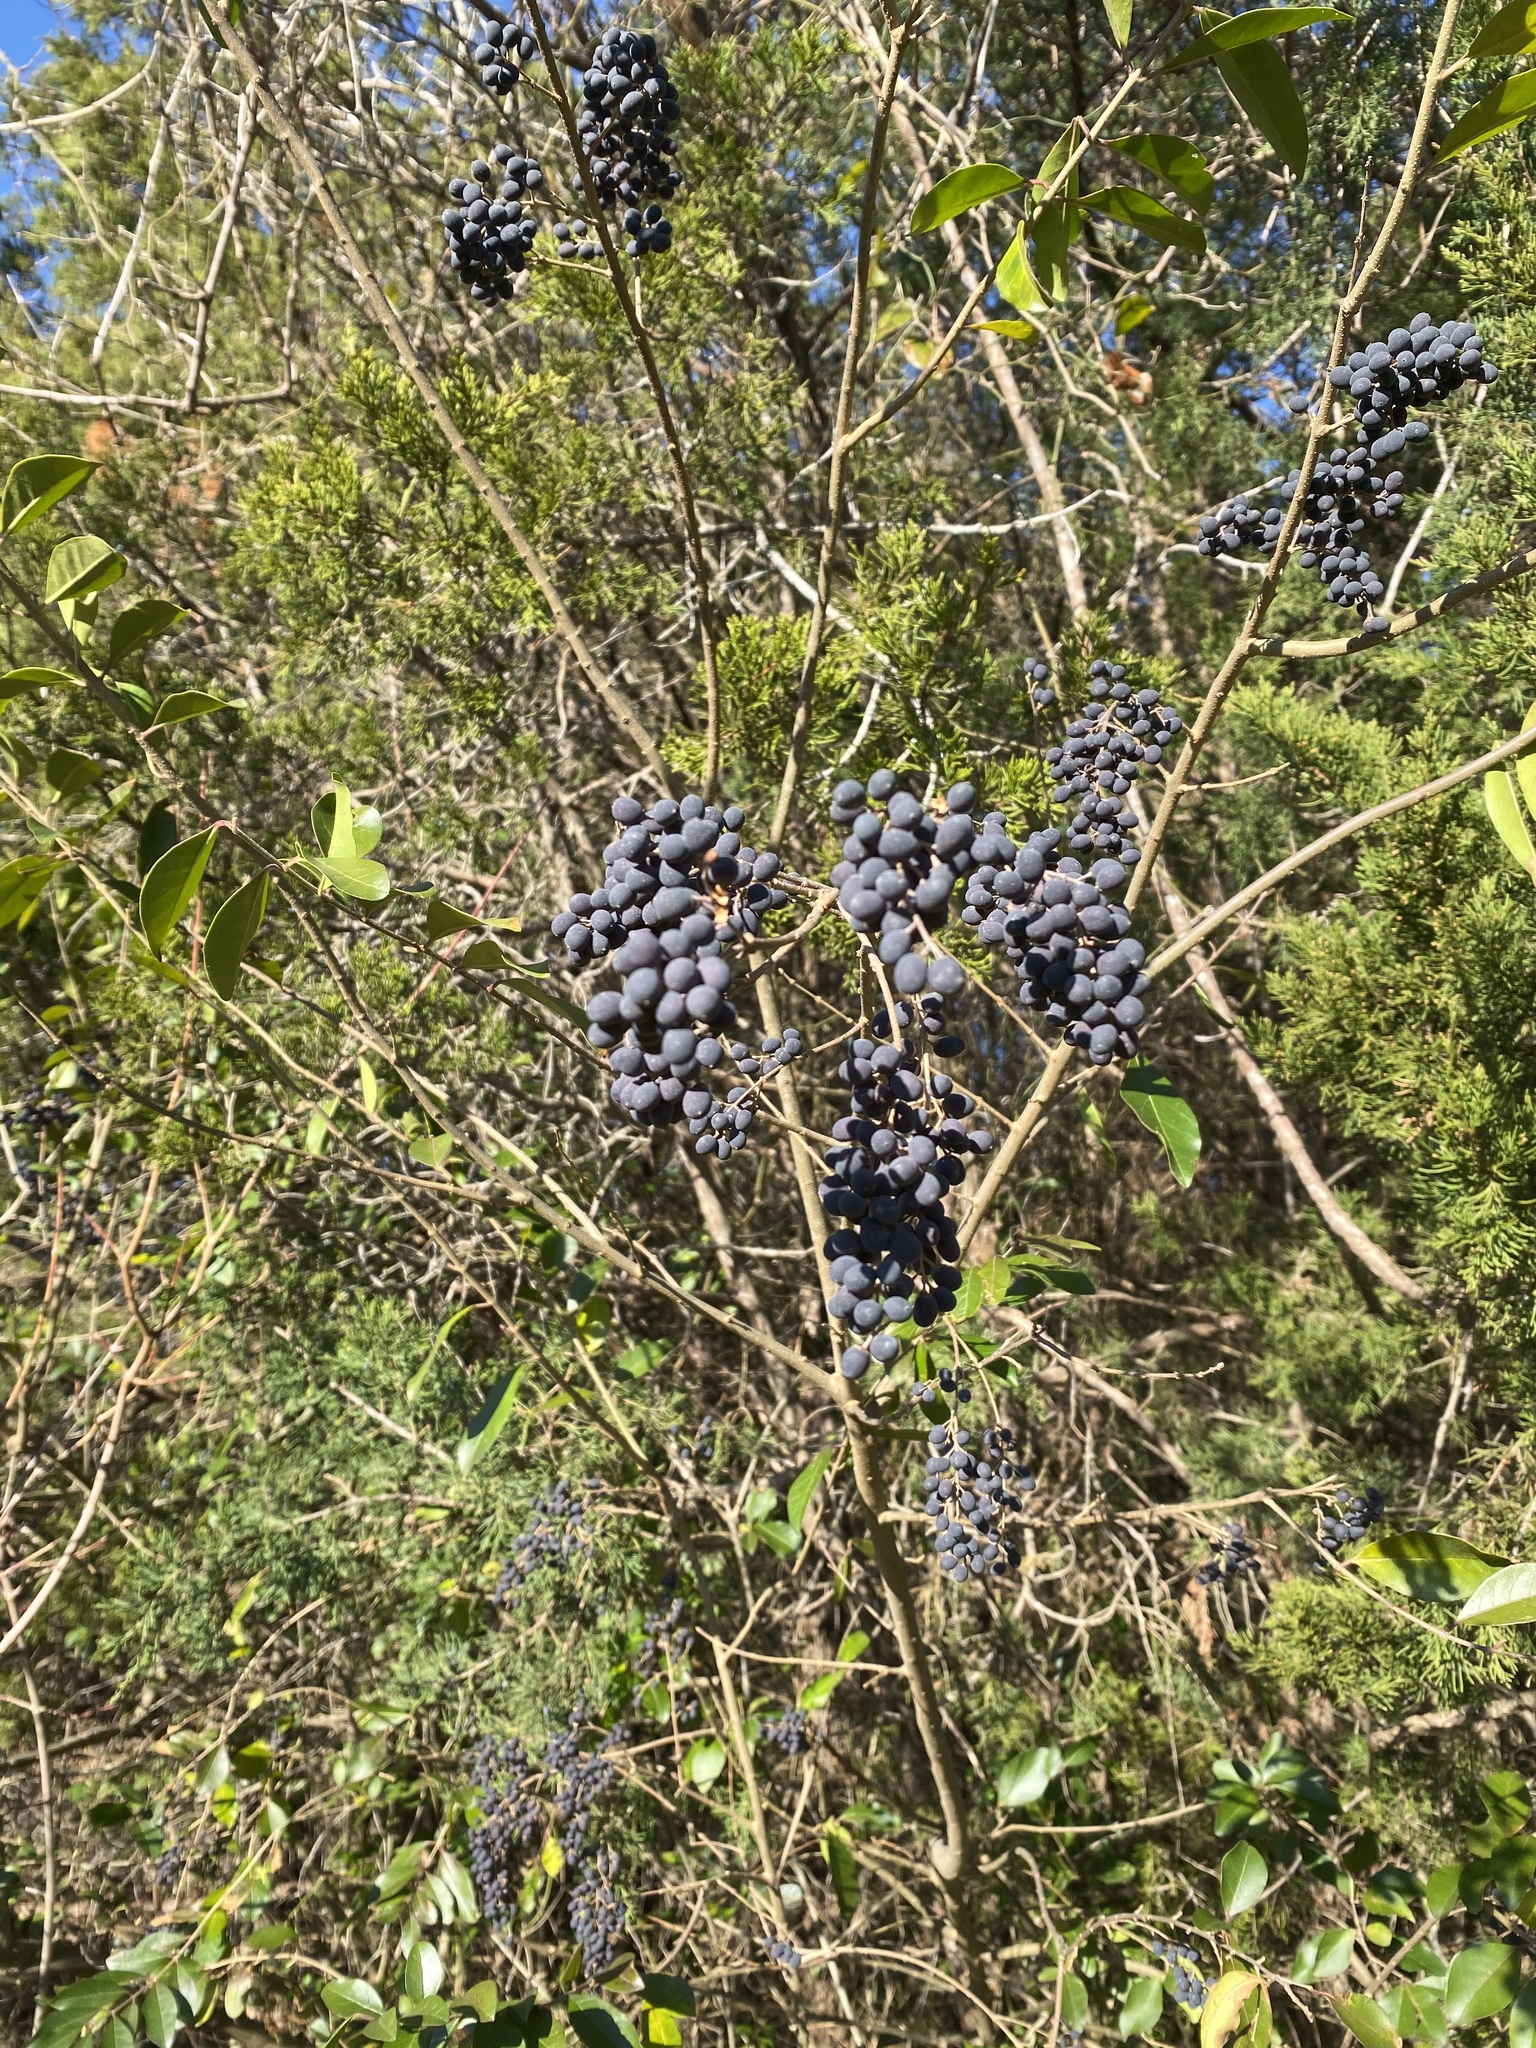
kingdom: Plantae
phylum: Tracheophyta
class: Magnoliopsida
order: Lamiales
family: Oleaceae
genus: Ligustrum
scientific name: Ligustrum ovalifolium
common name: California privet
